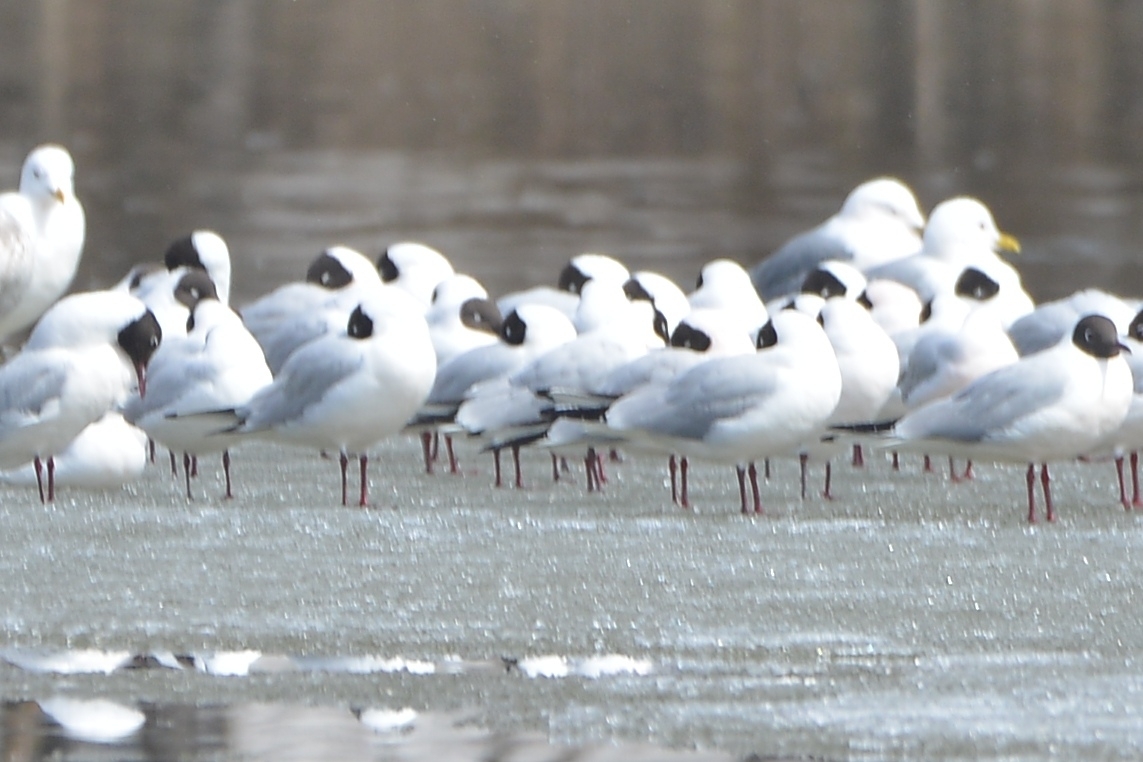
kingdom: Animalia
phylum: Chordata
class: Aves
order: Charadriiformes
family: Laridae
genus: Chroicocephalus
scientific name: Chroicocephalus ridibundus
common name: Black-headed gull
